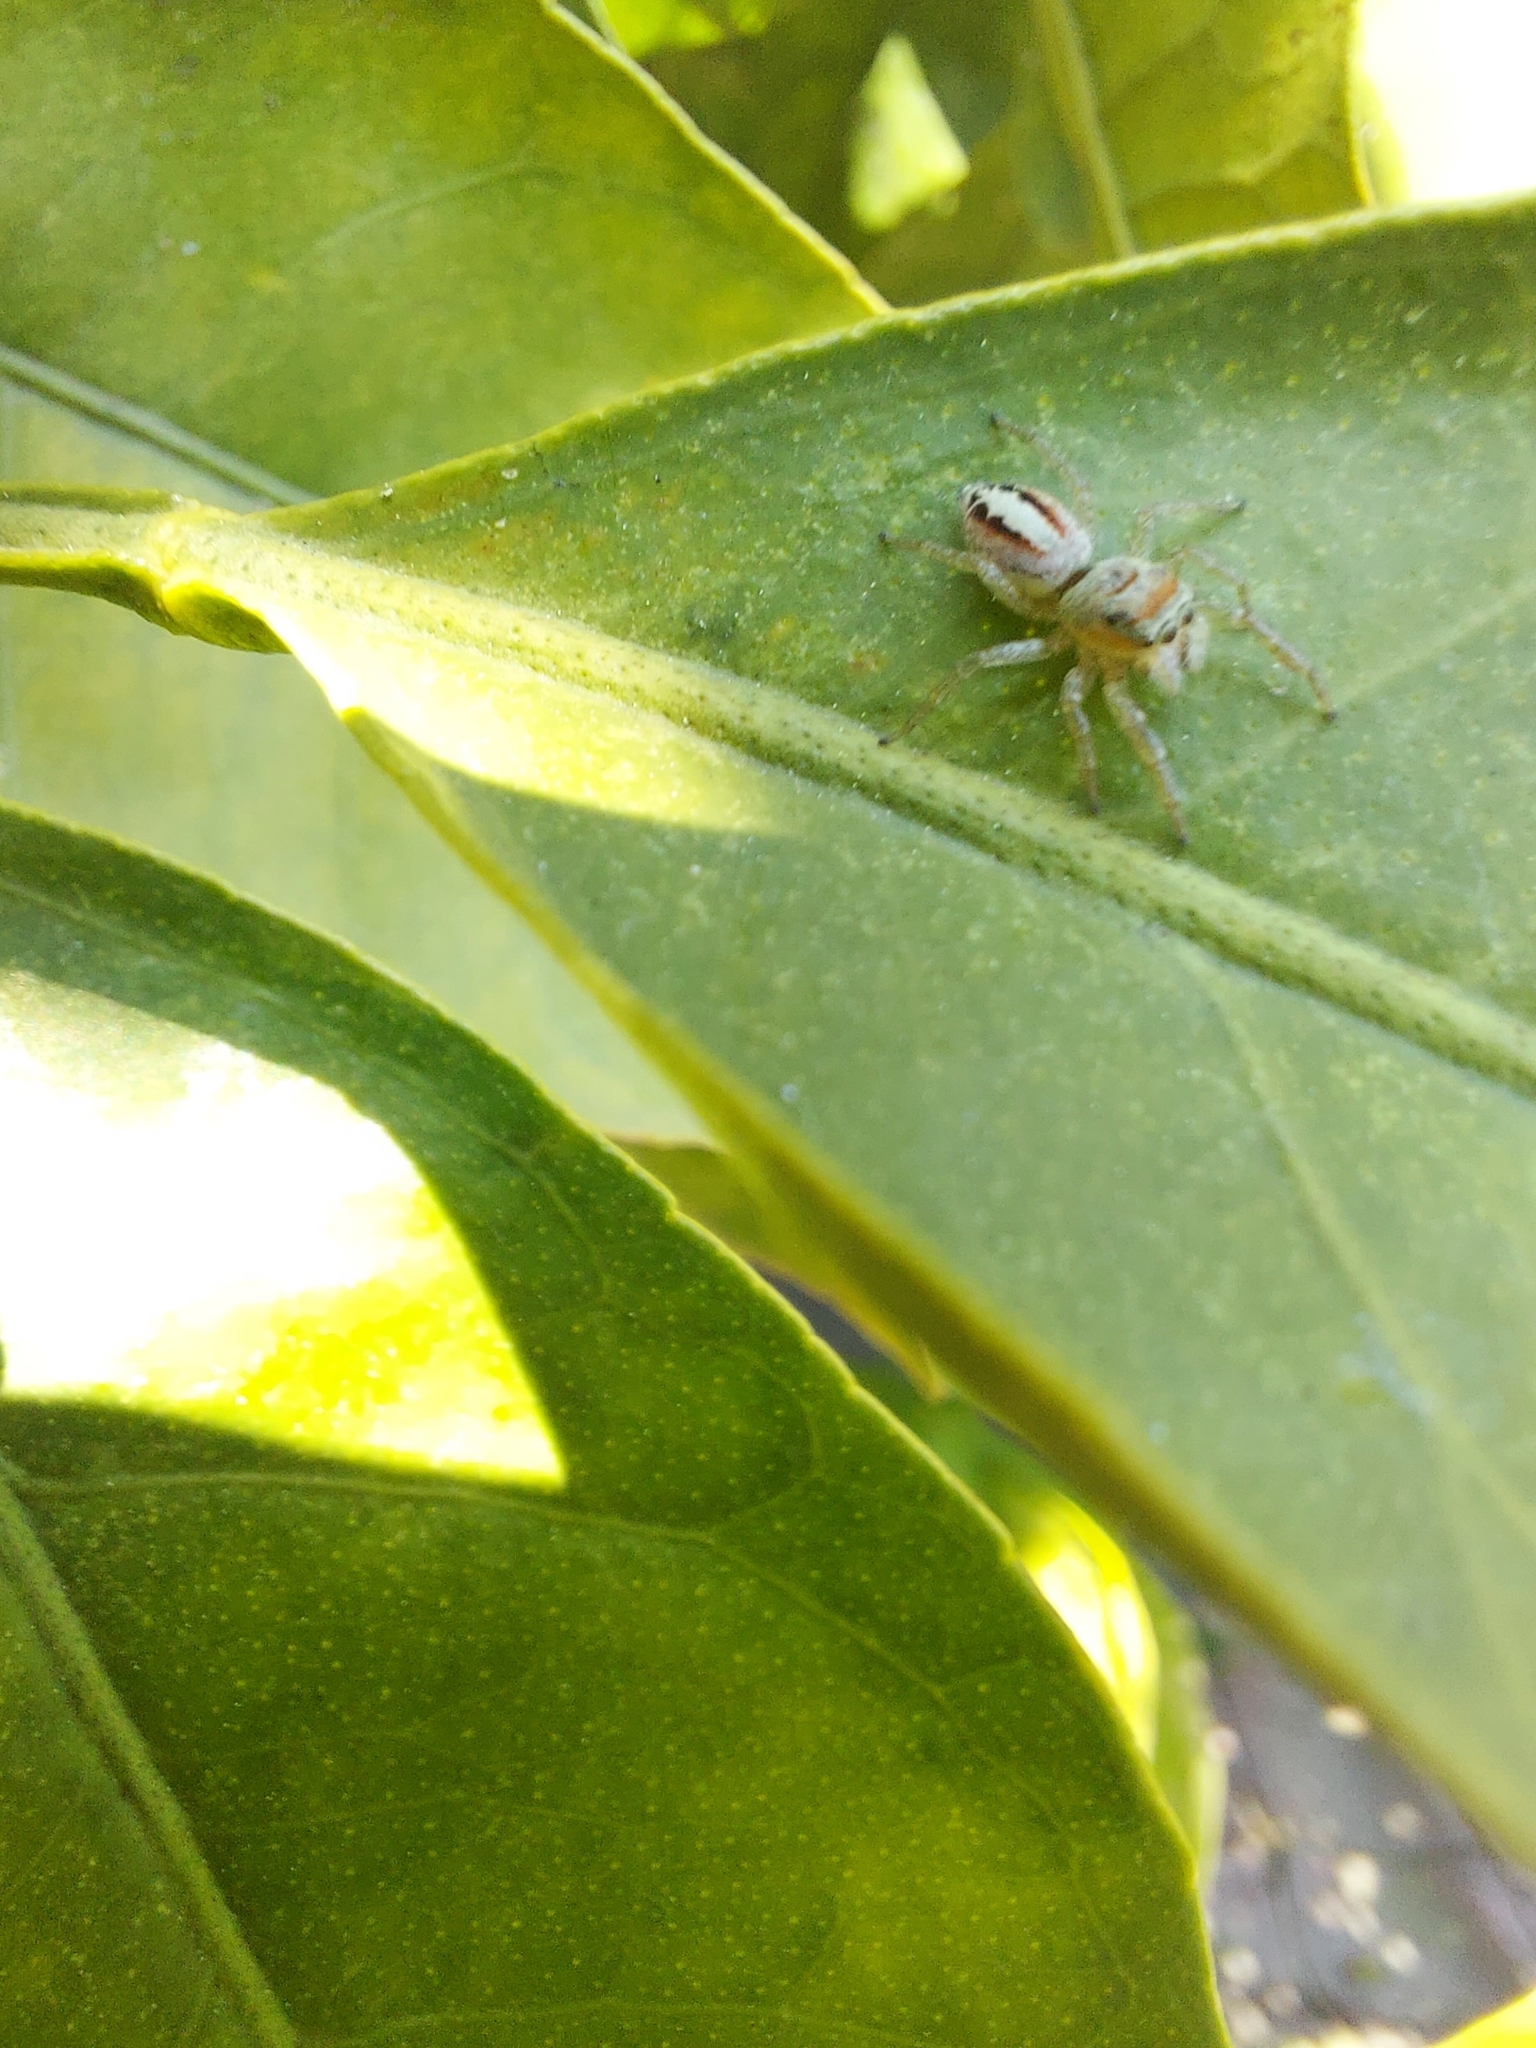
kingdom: Animalia
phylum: Arthropoda
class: Arachnida
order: Araneae
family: Salticidae
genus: Icius
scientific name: Icius hamatus
